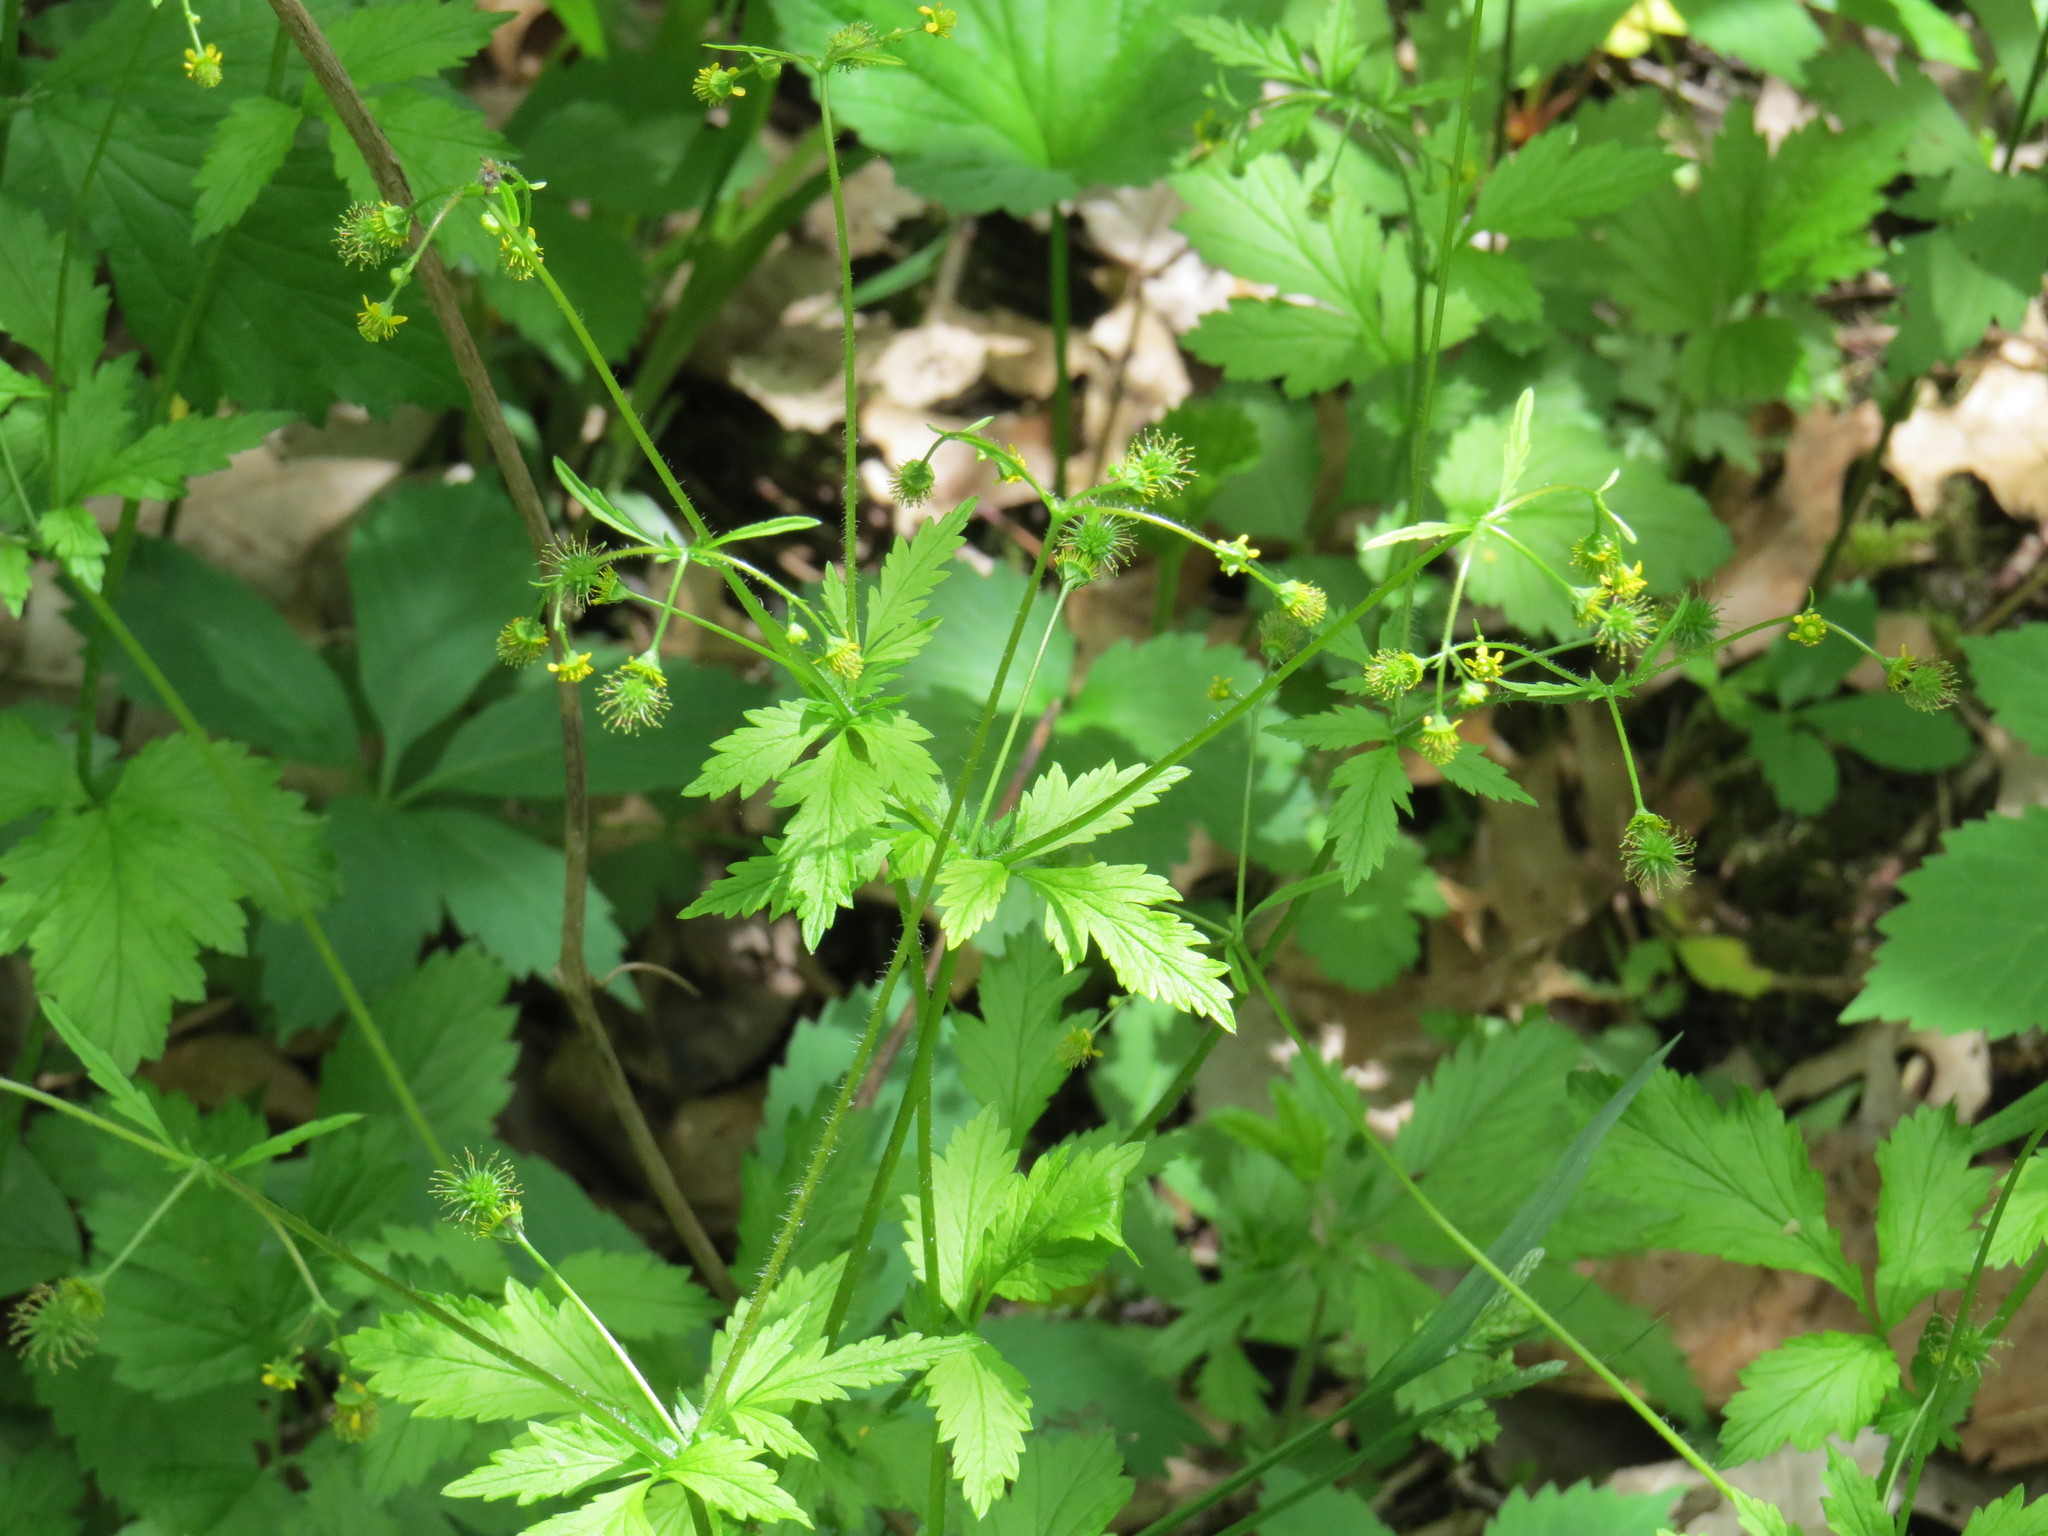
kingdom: Plantae
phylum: Tracheophyta
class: Magnoliopsida
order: Rosales
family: Rosaceae
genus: Geum
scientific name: Geum vernum
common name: Spring avens
